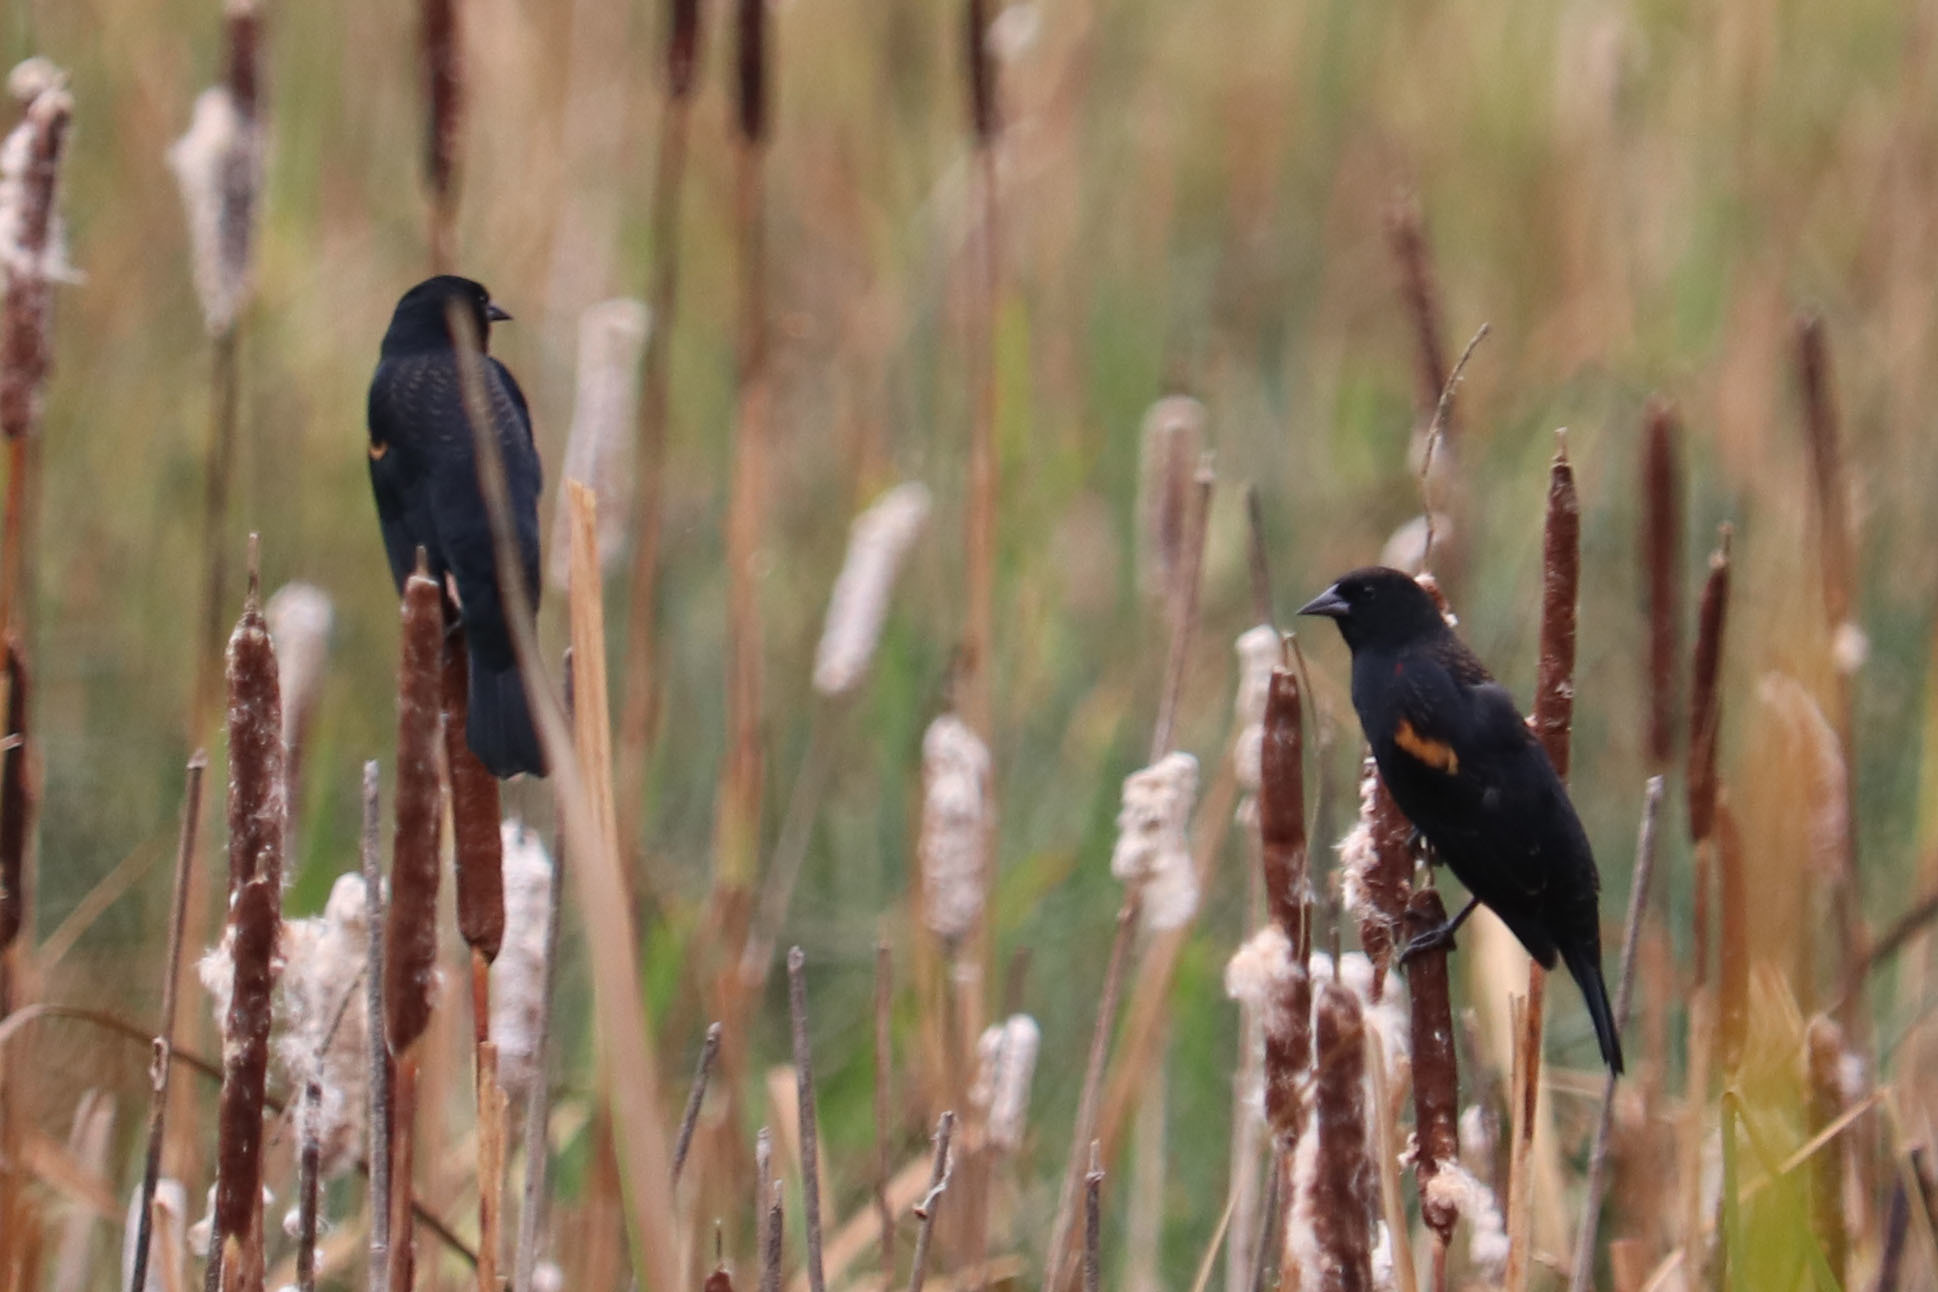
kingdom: Animalia
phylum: Chordata
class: Aves
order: Passeriformes
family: Icteridae
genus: Agelaius
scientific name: Agelaius phoeniceus
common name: Red-winged blackbird
